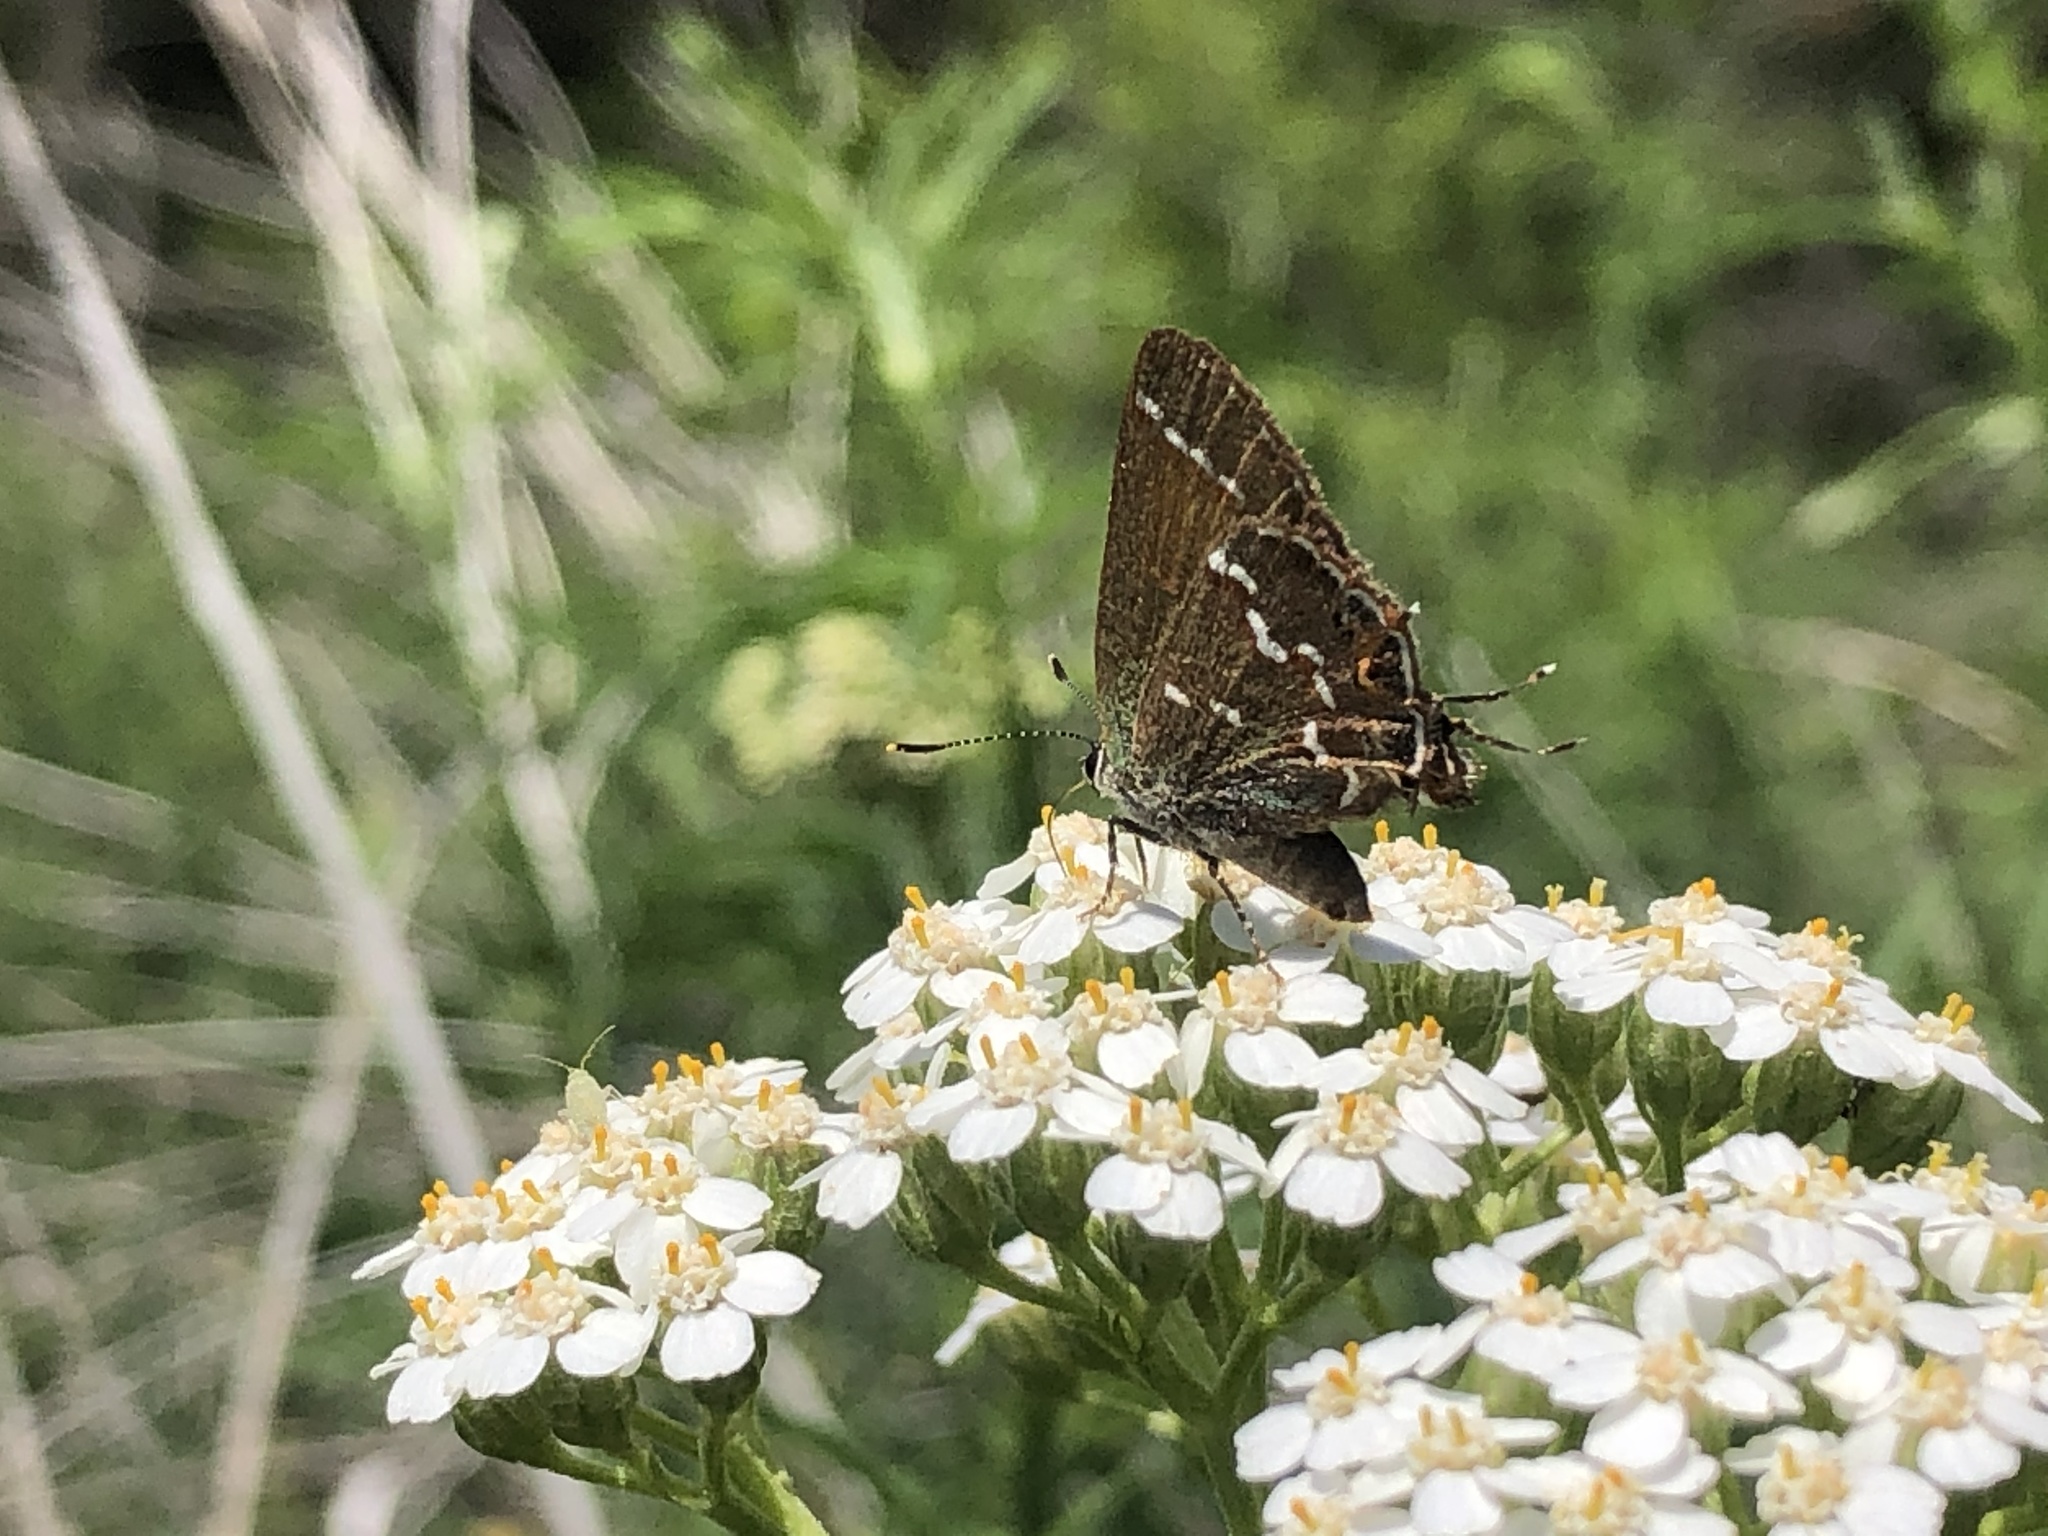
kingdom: Animalia
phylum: Arthropoda
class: Insecta
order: Lepidoptera
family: Lycaenidae
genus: Mitoura
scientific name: Mitoura gryneus
